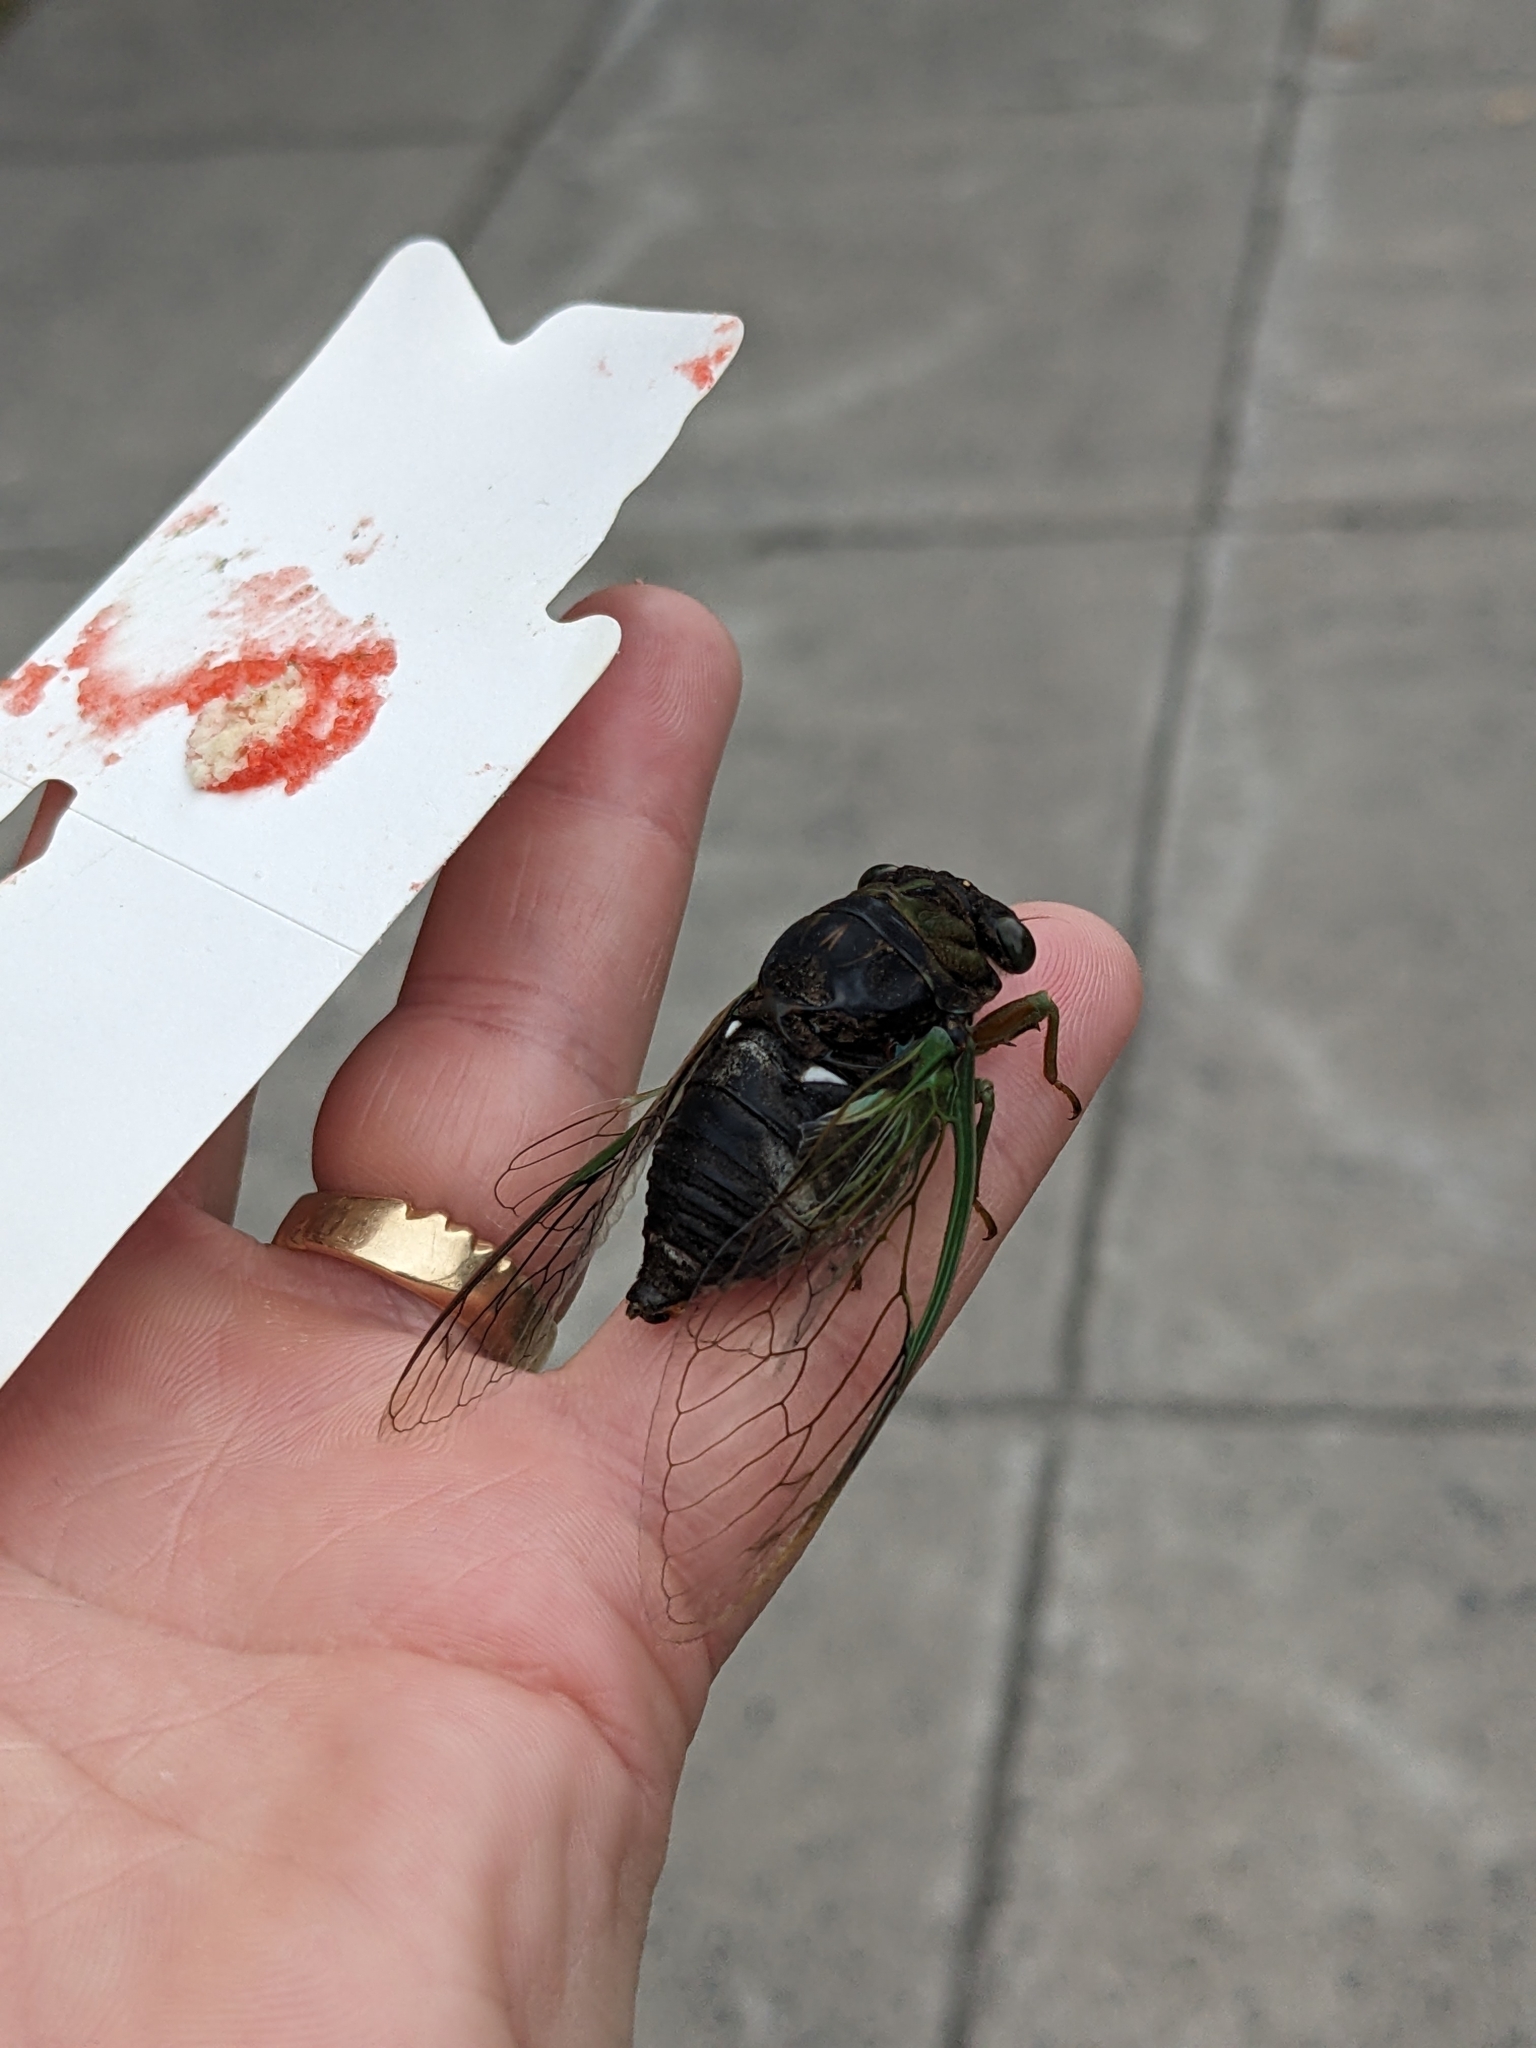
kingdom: Animalia
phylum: Arthropoda
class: Insecta
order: Hemiptera
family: Cicadidae
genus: Neotibicen
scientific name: Neotibicen tibicen
